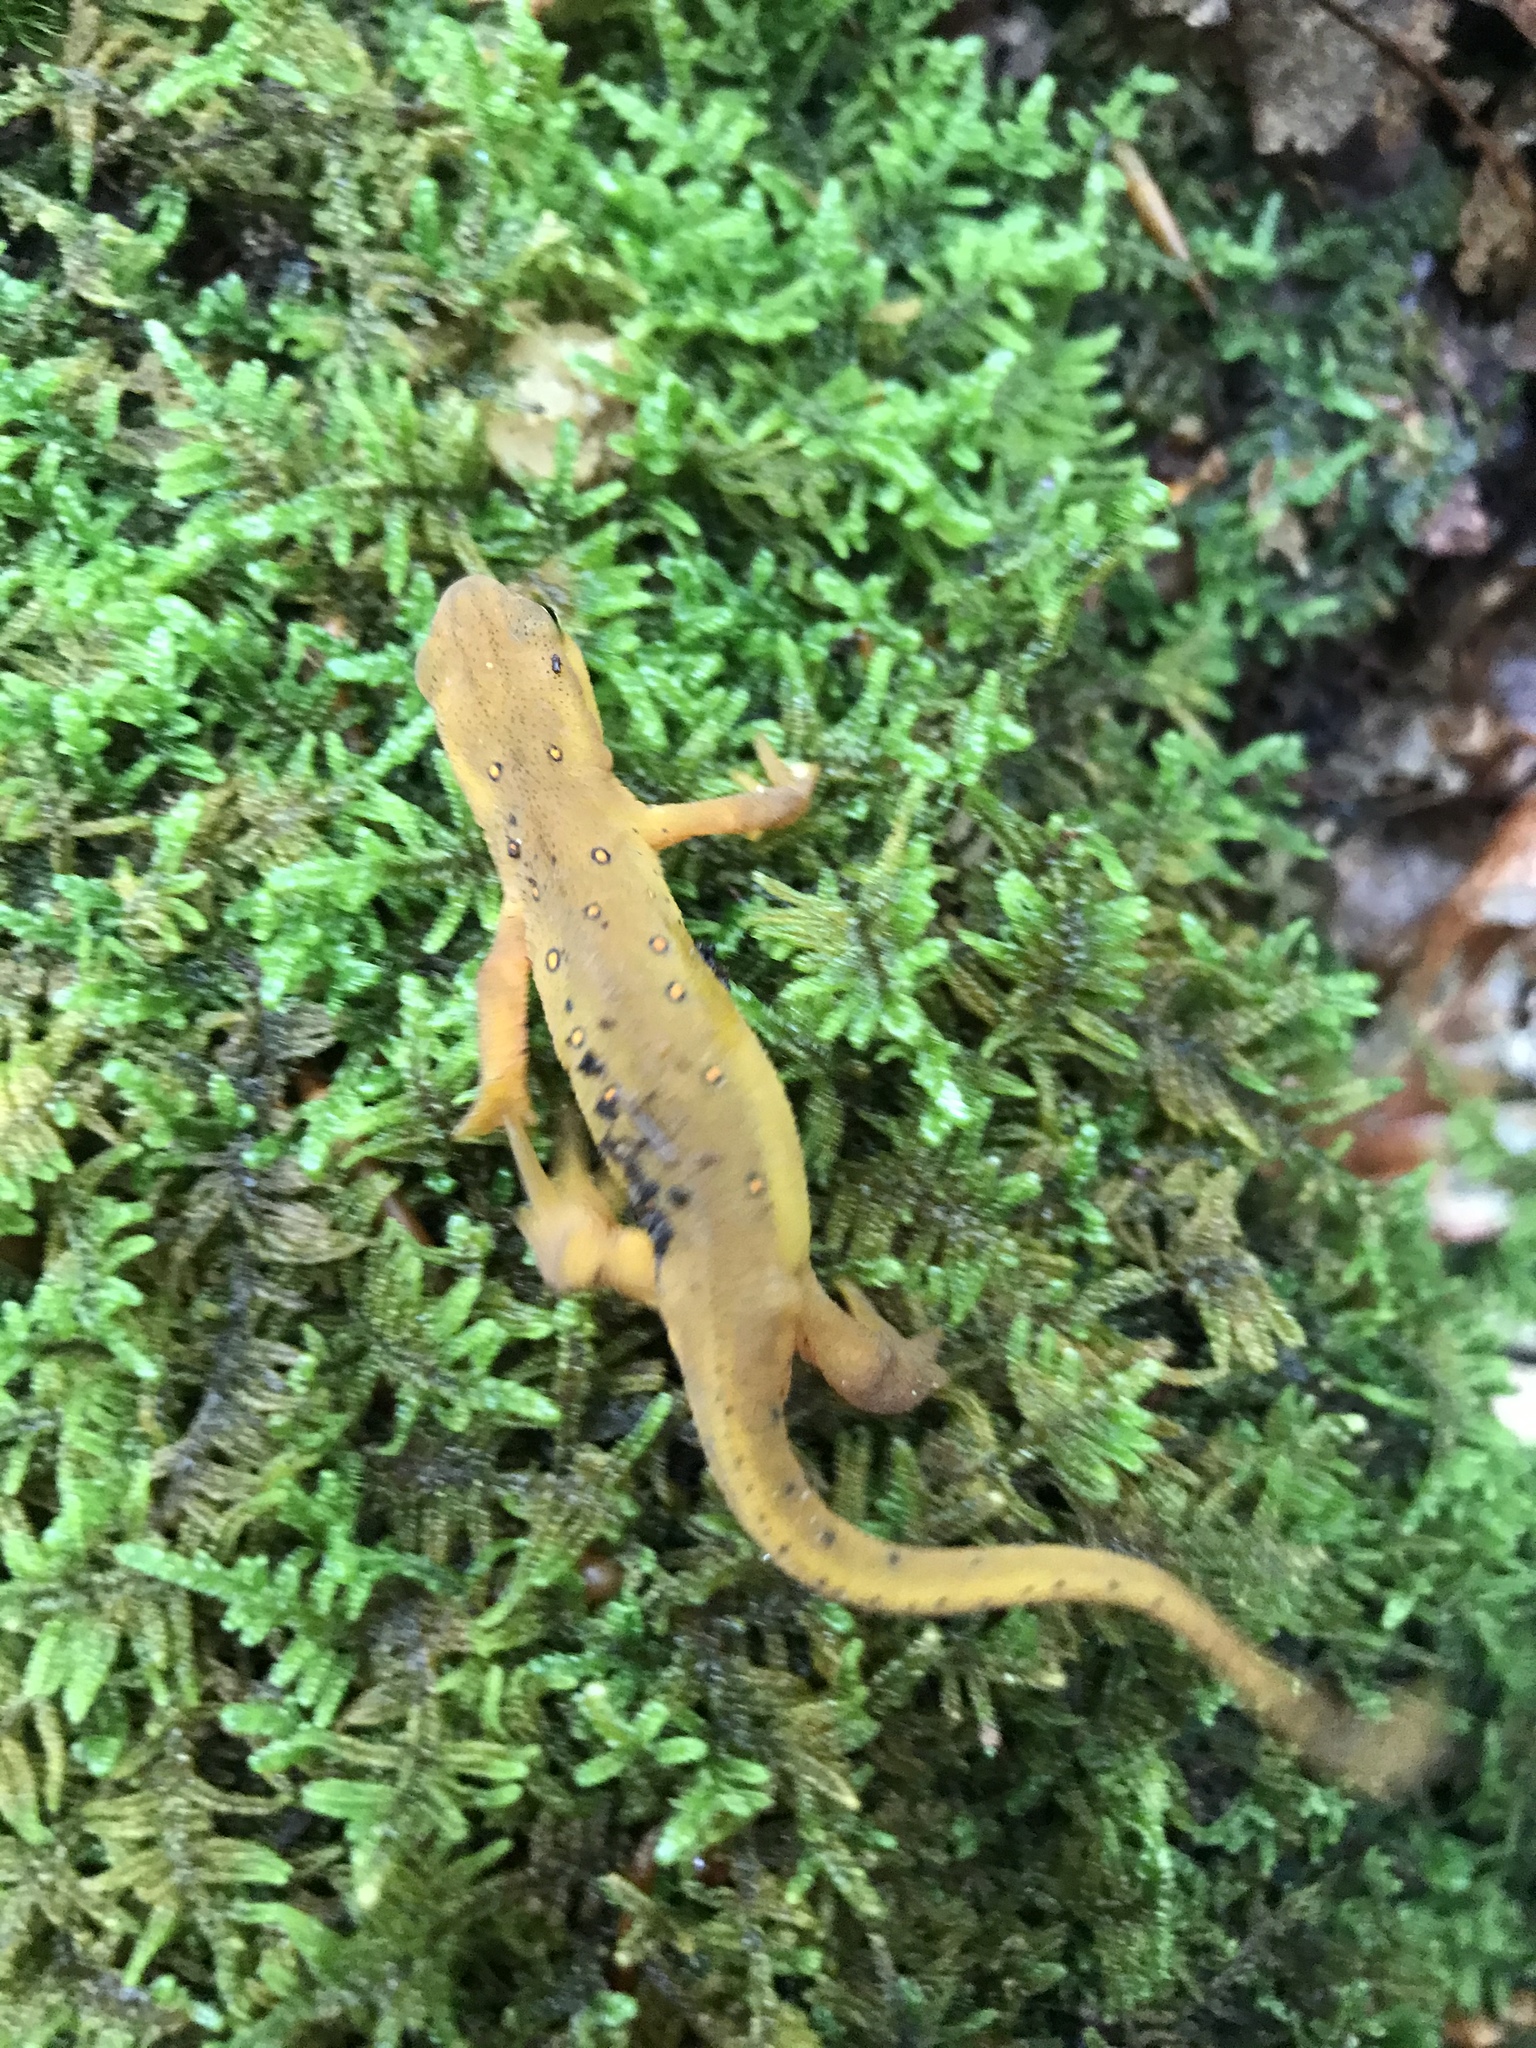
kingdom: Animalia
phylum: Chordata
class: Amphibia
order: Caudata
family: Salamandridae
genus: Notophthalmus
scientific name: Notophthalmus viridescens
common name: Eastern newt
